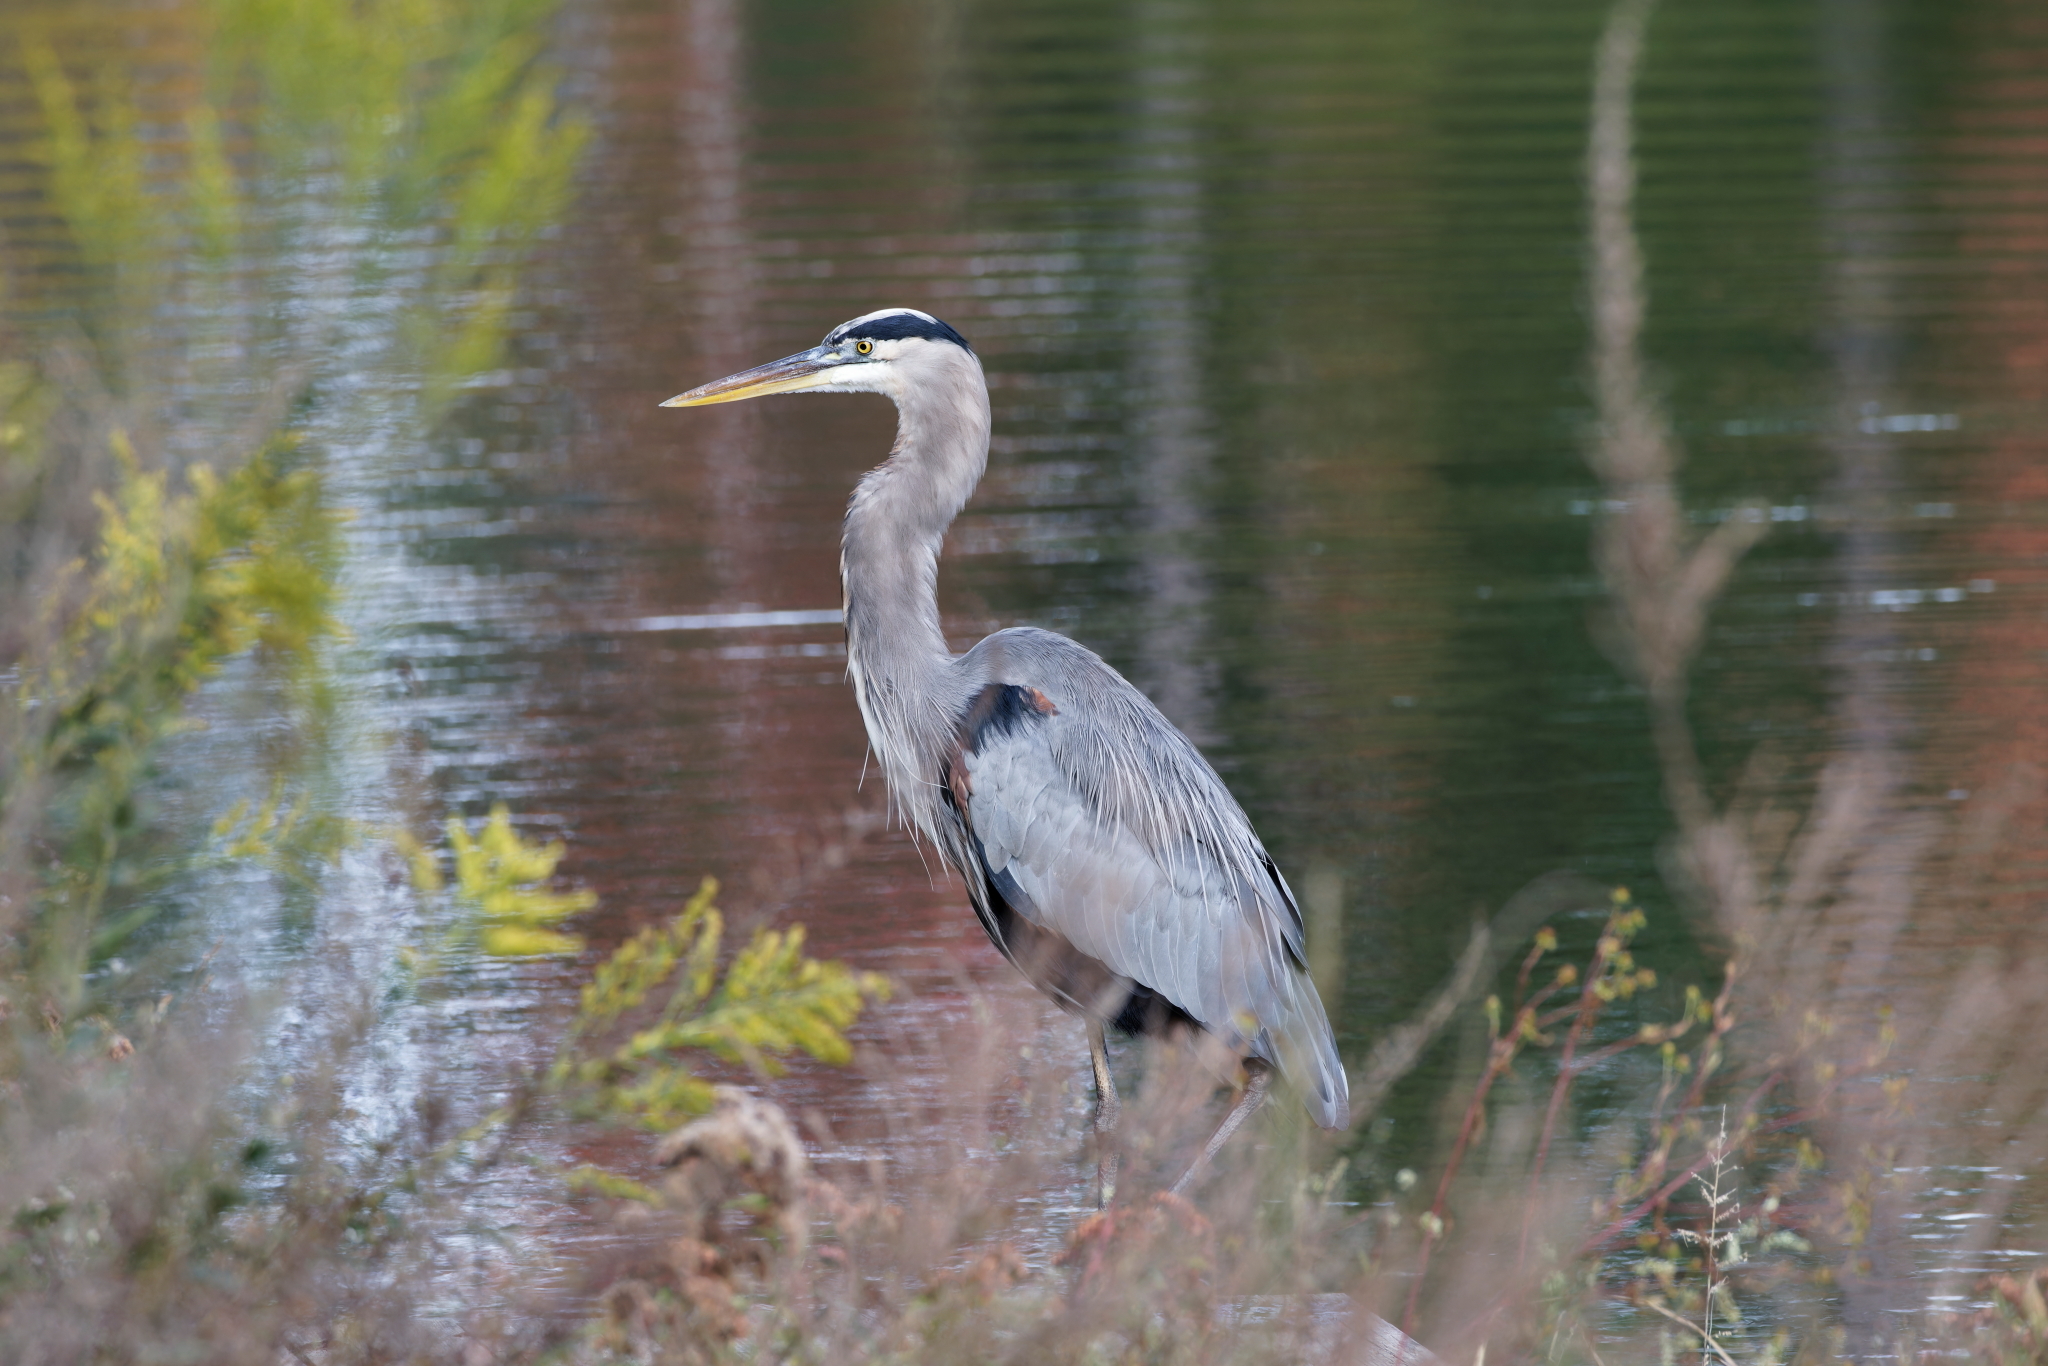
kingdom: Animalia
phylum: Chordata
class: Aves
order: Pelecaniformes
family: Ardeidae
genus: Ardea
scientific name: Ardea herodias
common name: Great blue heron
